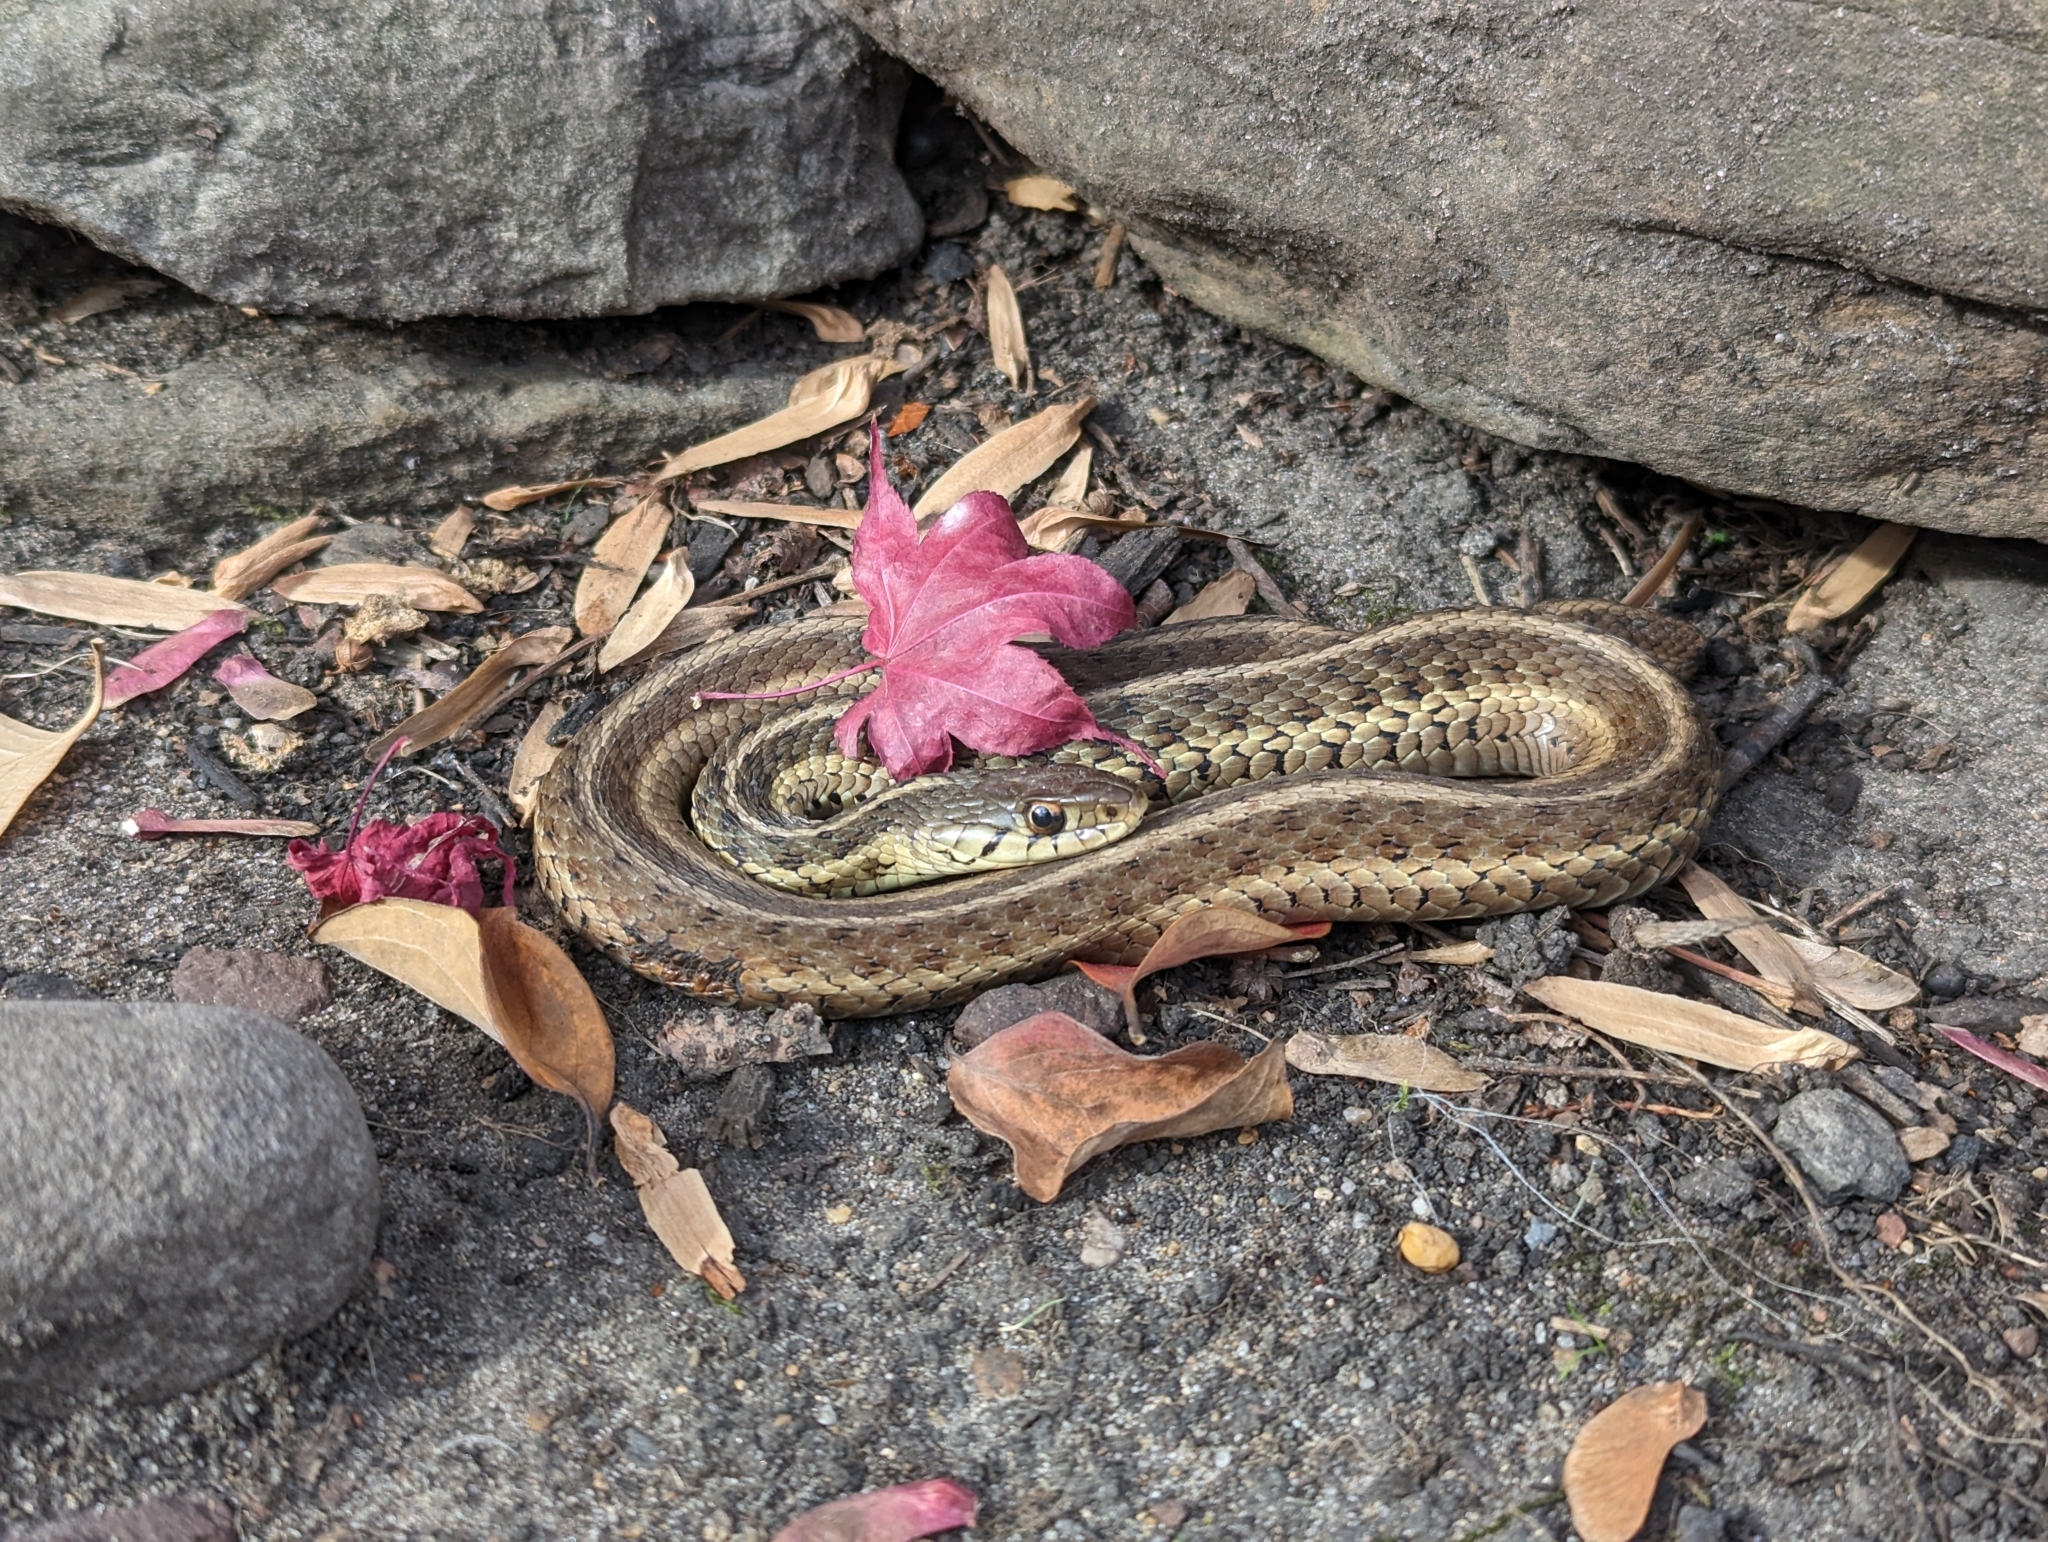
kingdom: Animalia
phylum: Chordata
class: Squamata
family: Colubridae
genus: Thamnophis
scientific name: Thamnophis sirtalis
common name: Common garter snake
